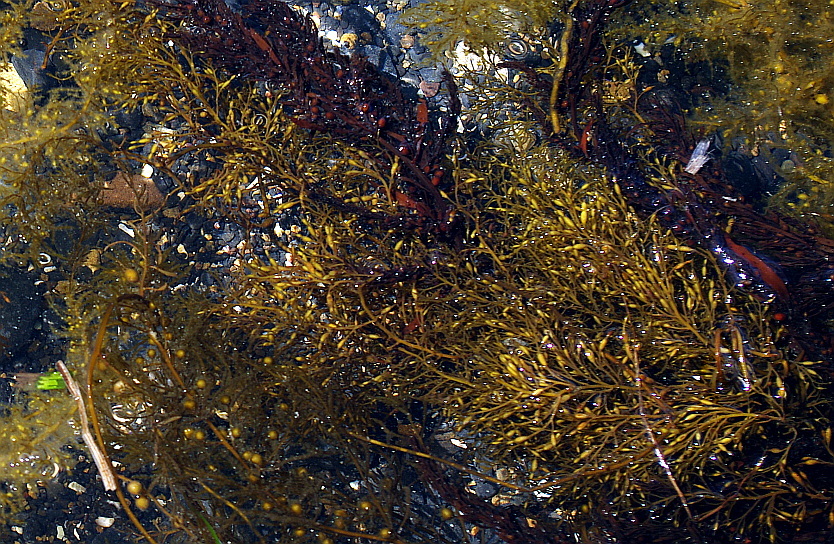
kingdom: Chromista
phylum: Ochrophyta
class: Phaeophyceae
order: Fucales
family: Sargassaceae
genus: Stephanocystis
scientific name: Stephanocystis
